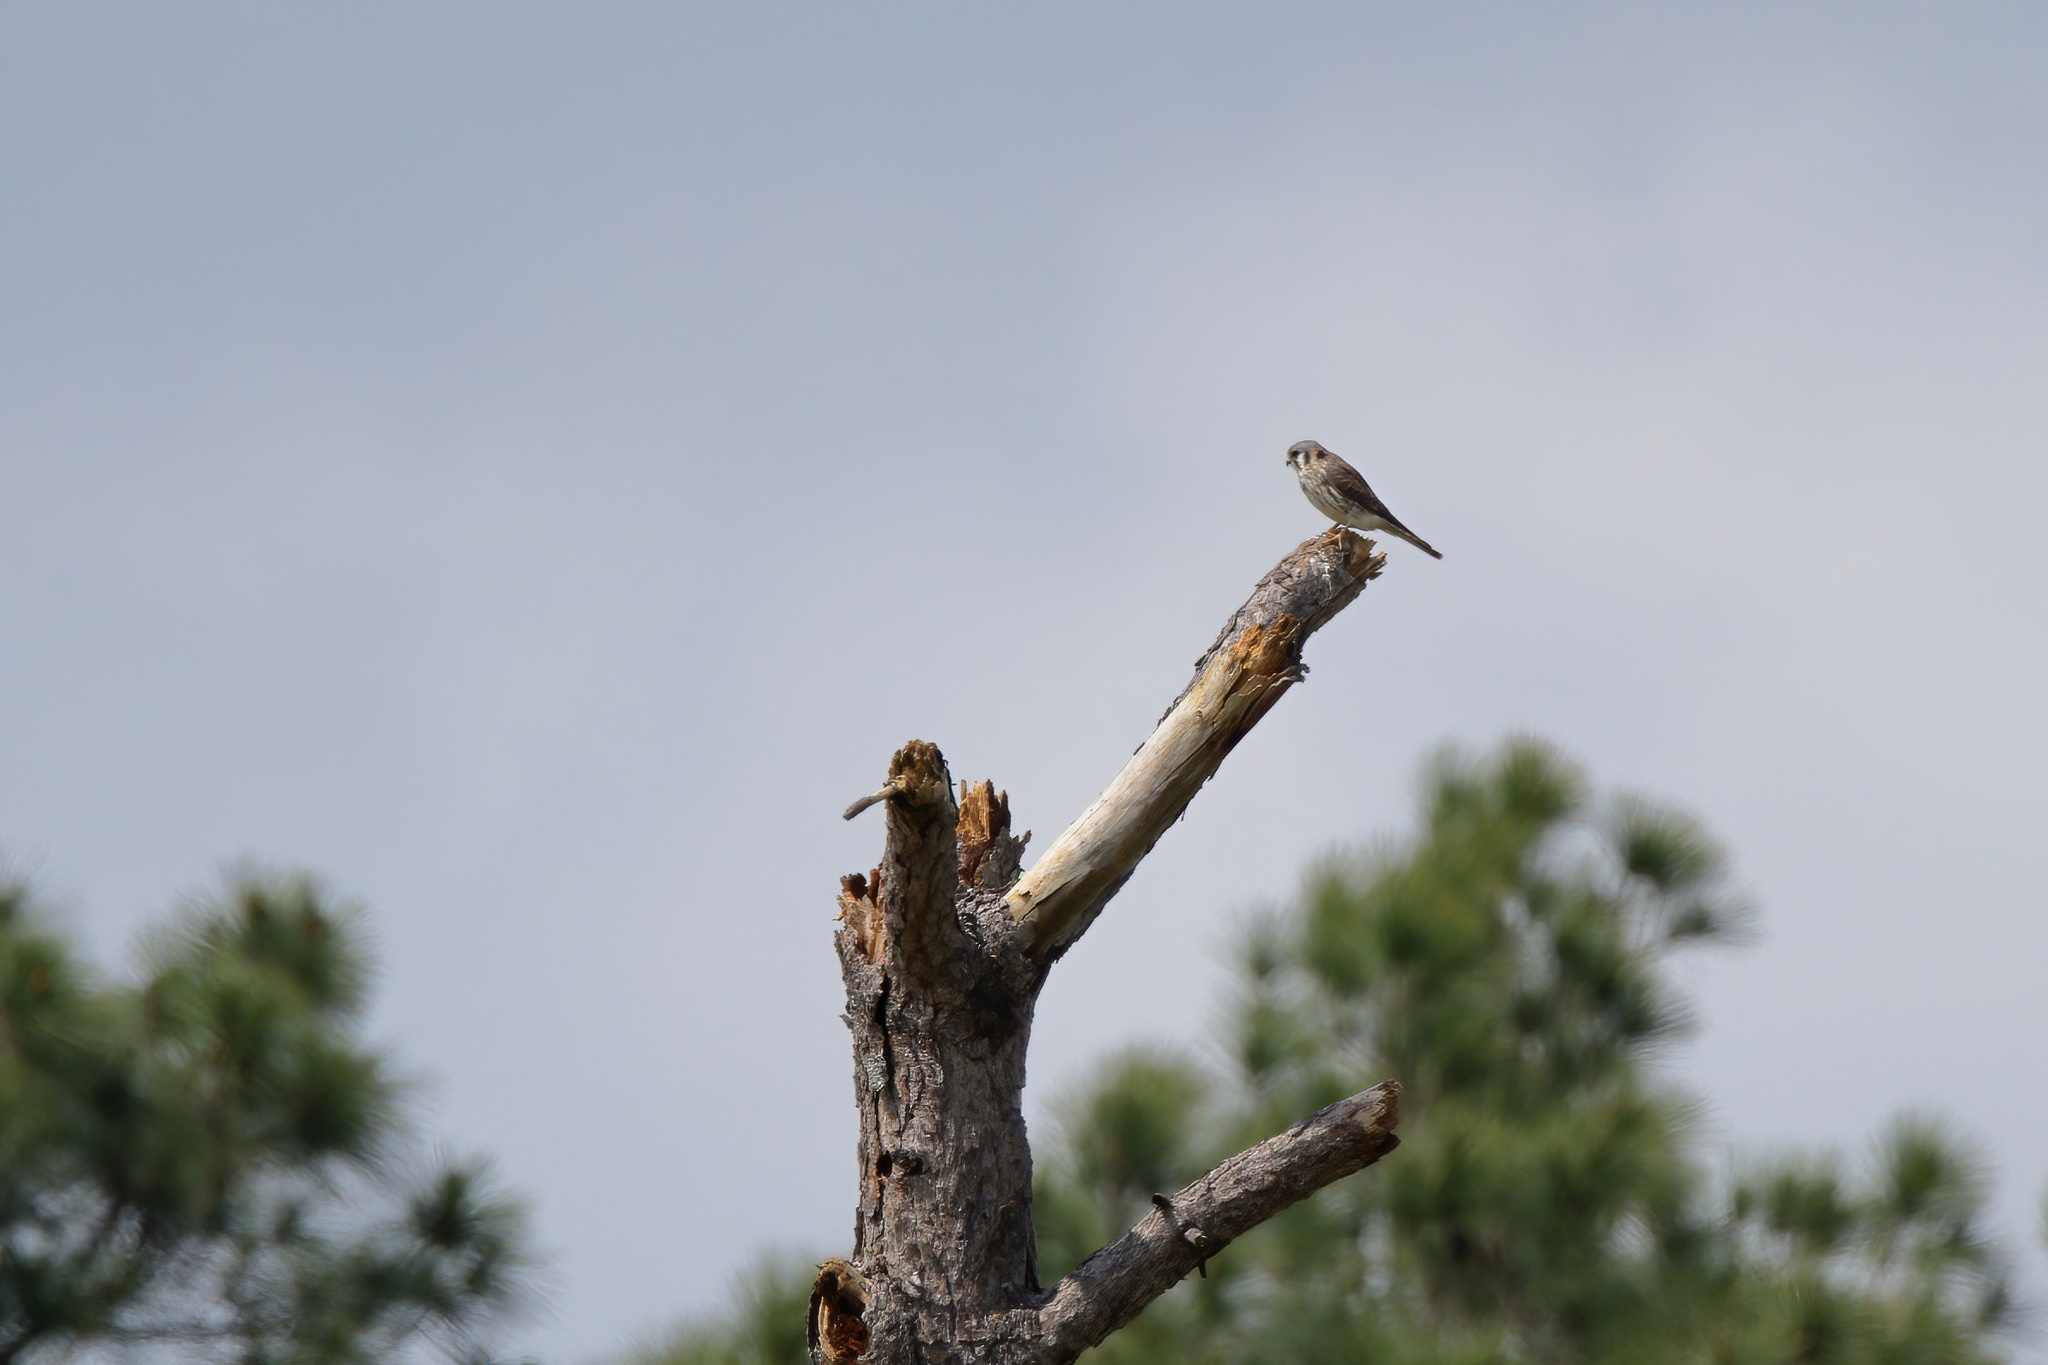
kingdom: Animalia
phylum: Chordata
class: Aves
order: Falconiformes
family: Falconidae
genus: Falco
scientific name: Falco sparverius
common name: American kestrel
